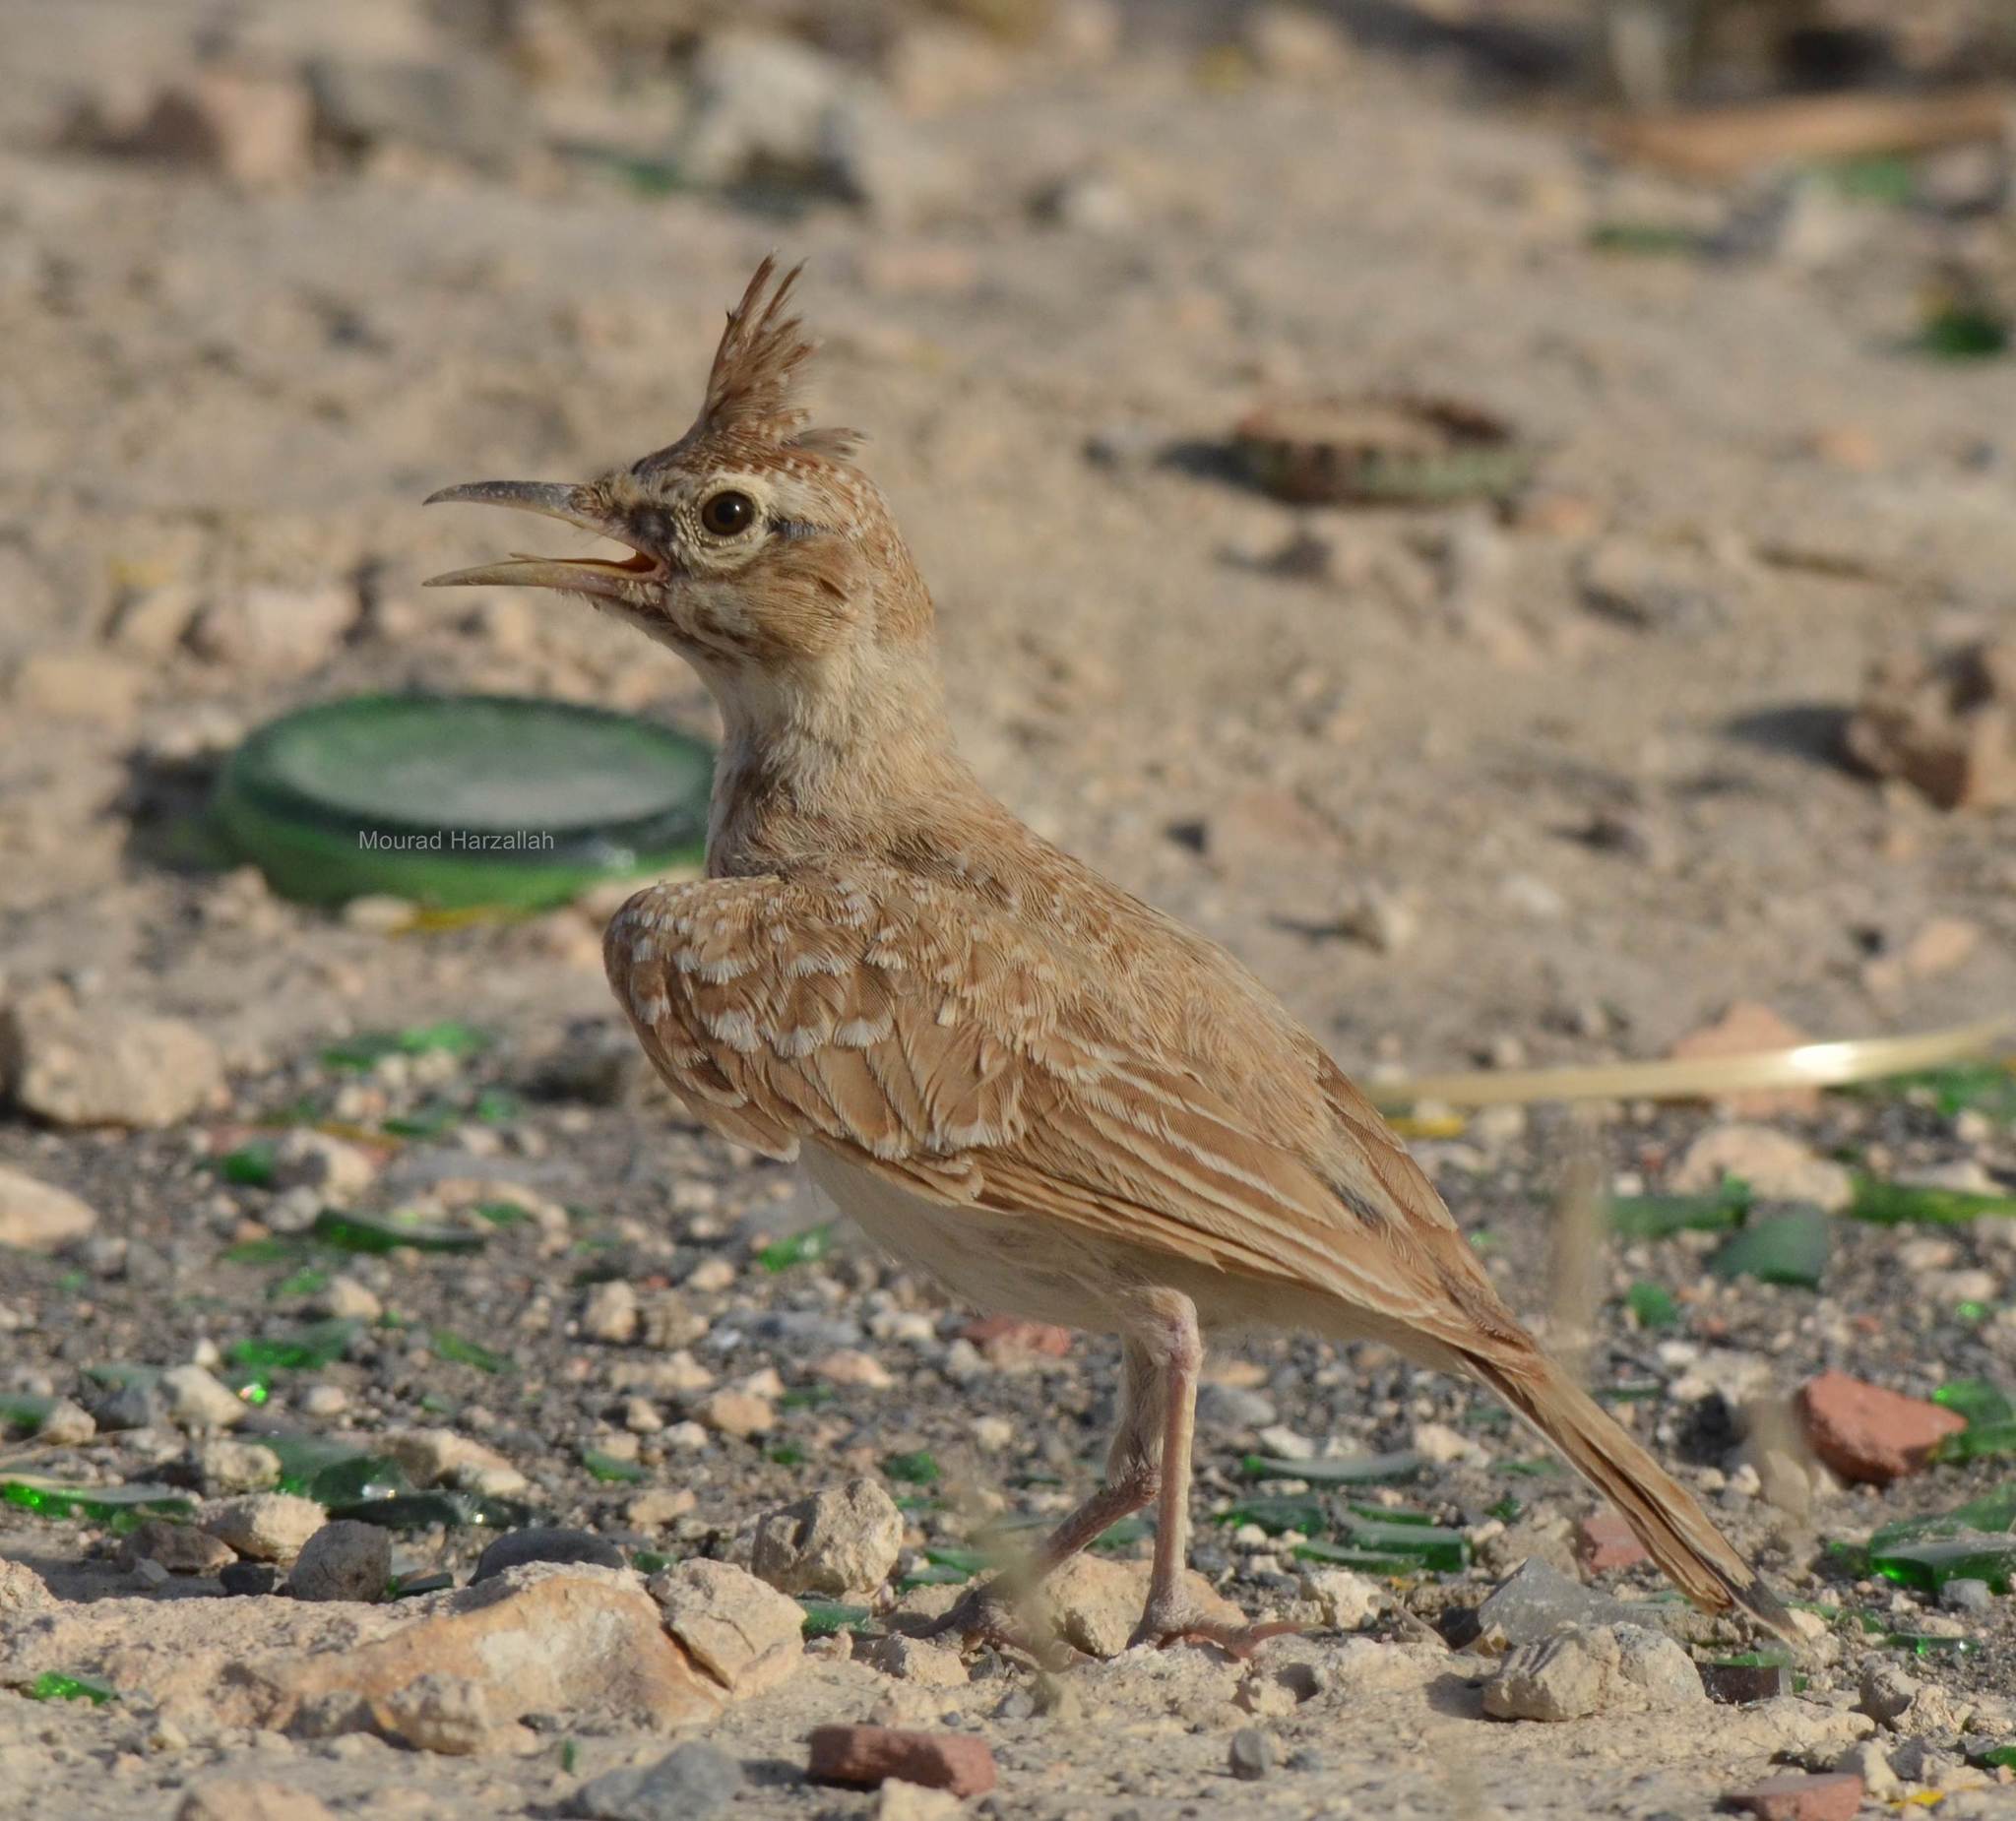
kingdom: Animalia
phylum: Chordata
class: Aves
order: Passeriformes
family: Alaudidae
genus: Galerida
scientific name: Galerida cristata
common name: Crested lark
